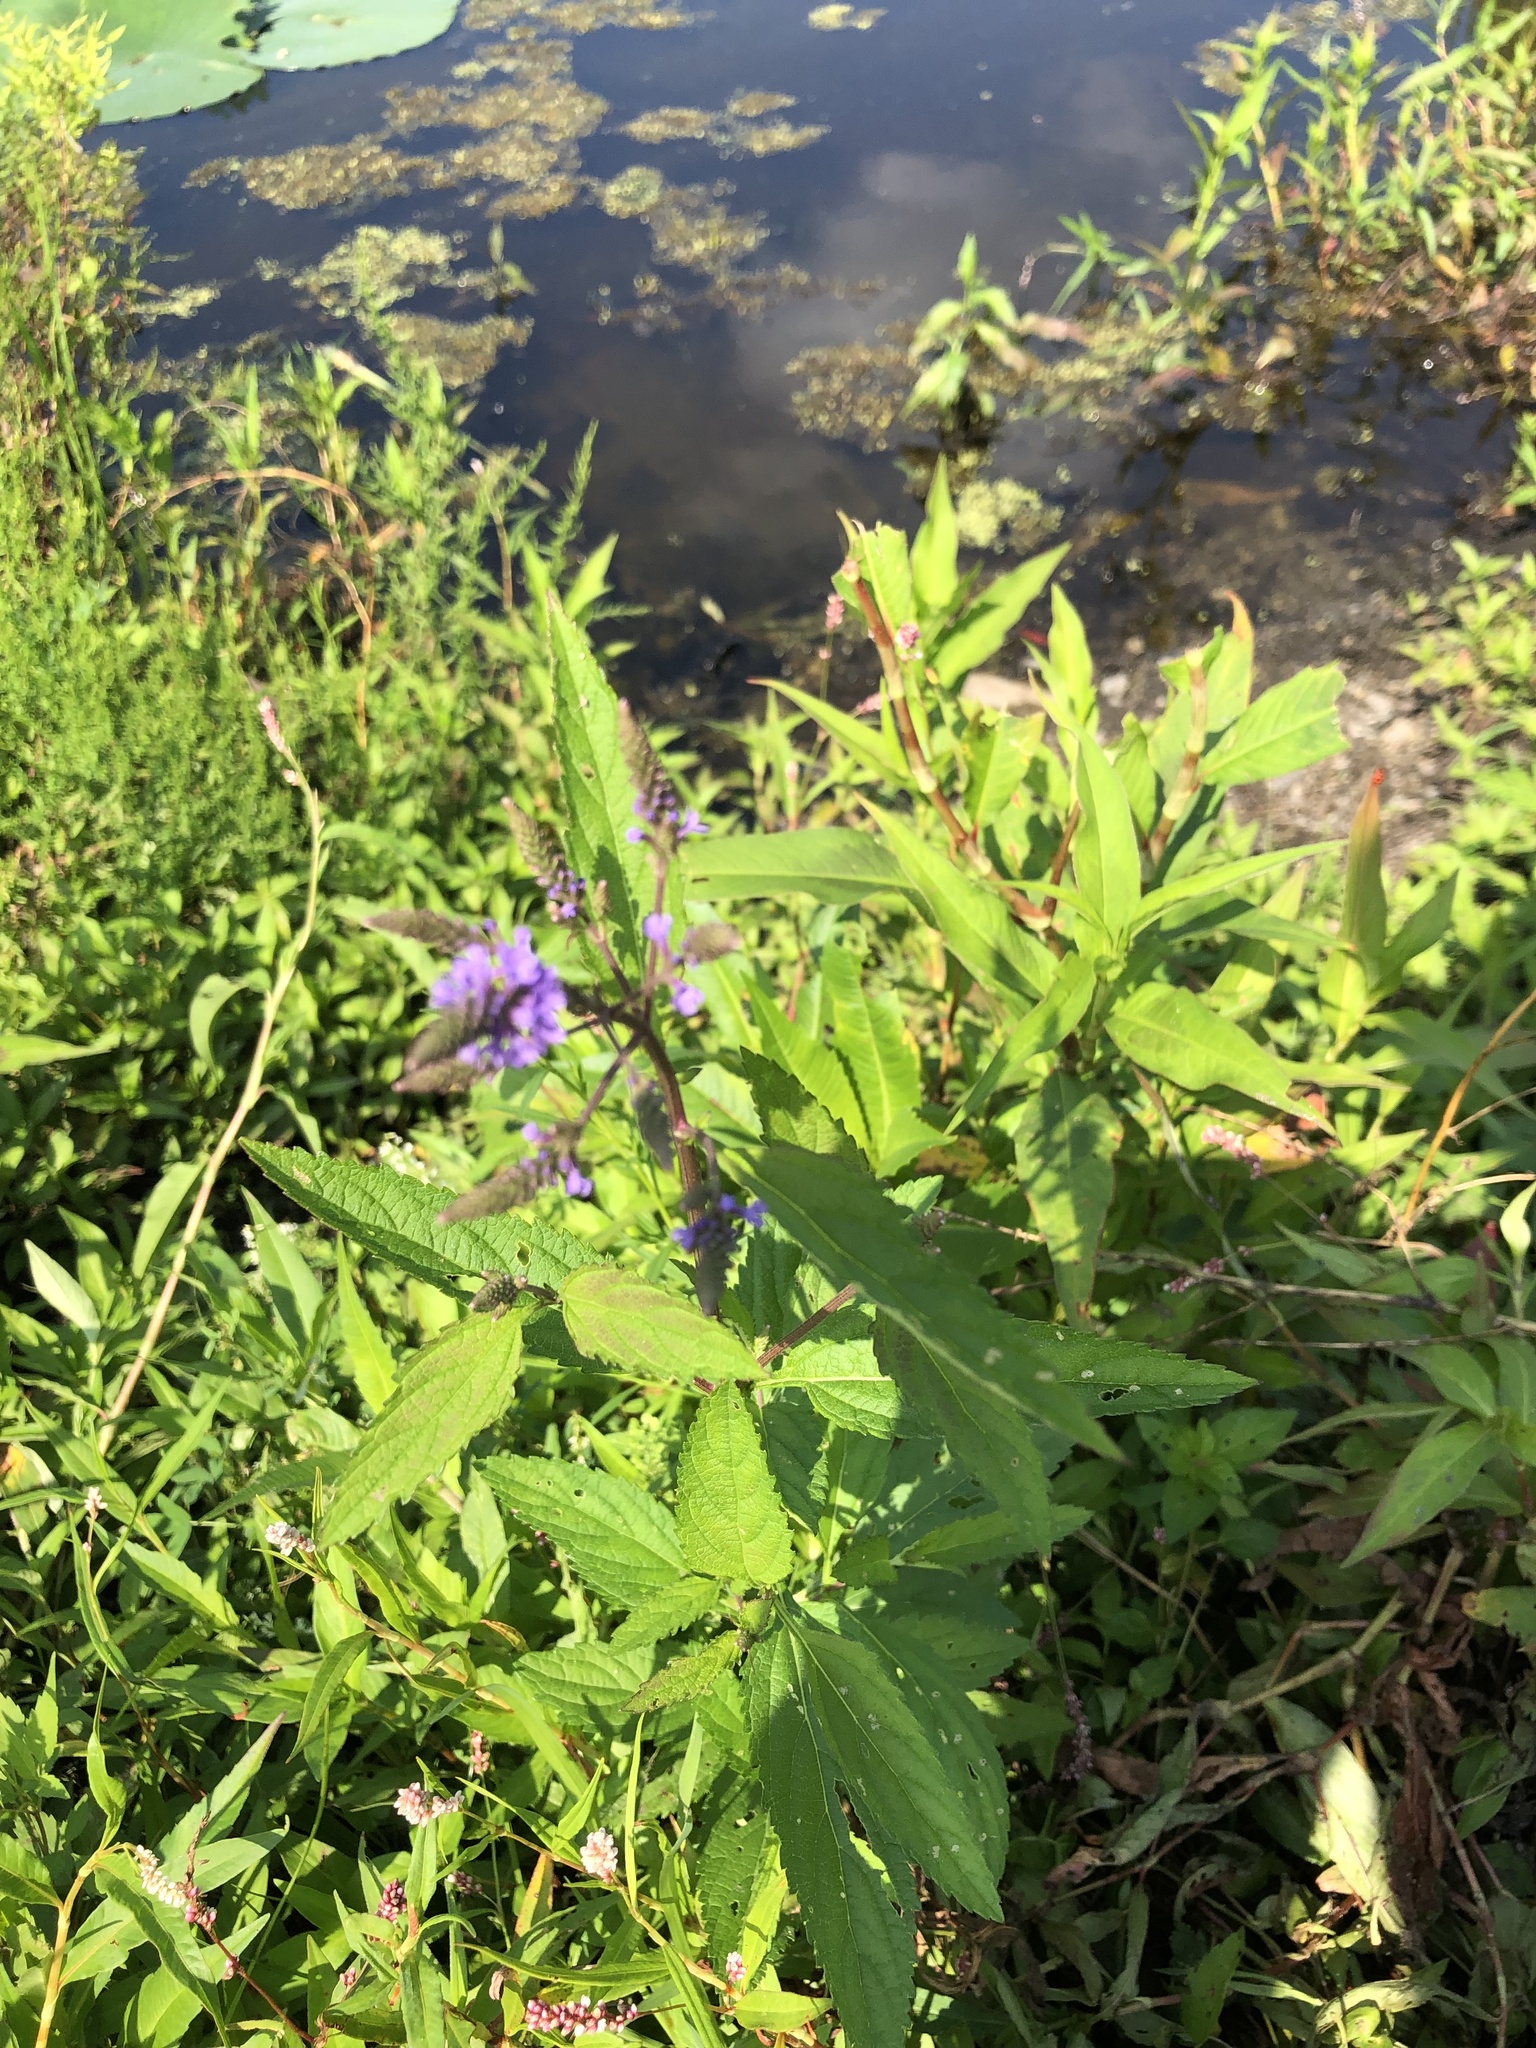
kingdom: Plantae
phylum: Tracheophyta
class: Magnoliopsida
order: Lamiales
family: Verbenaceae
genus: Verbena
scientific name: Verbena hastata
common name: American blue vervain
